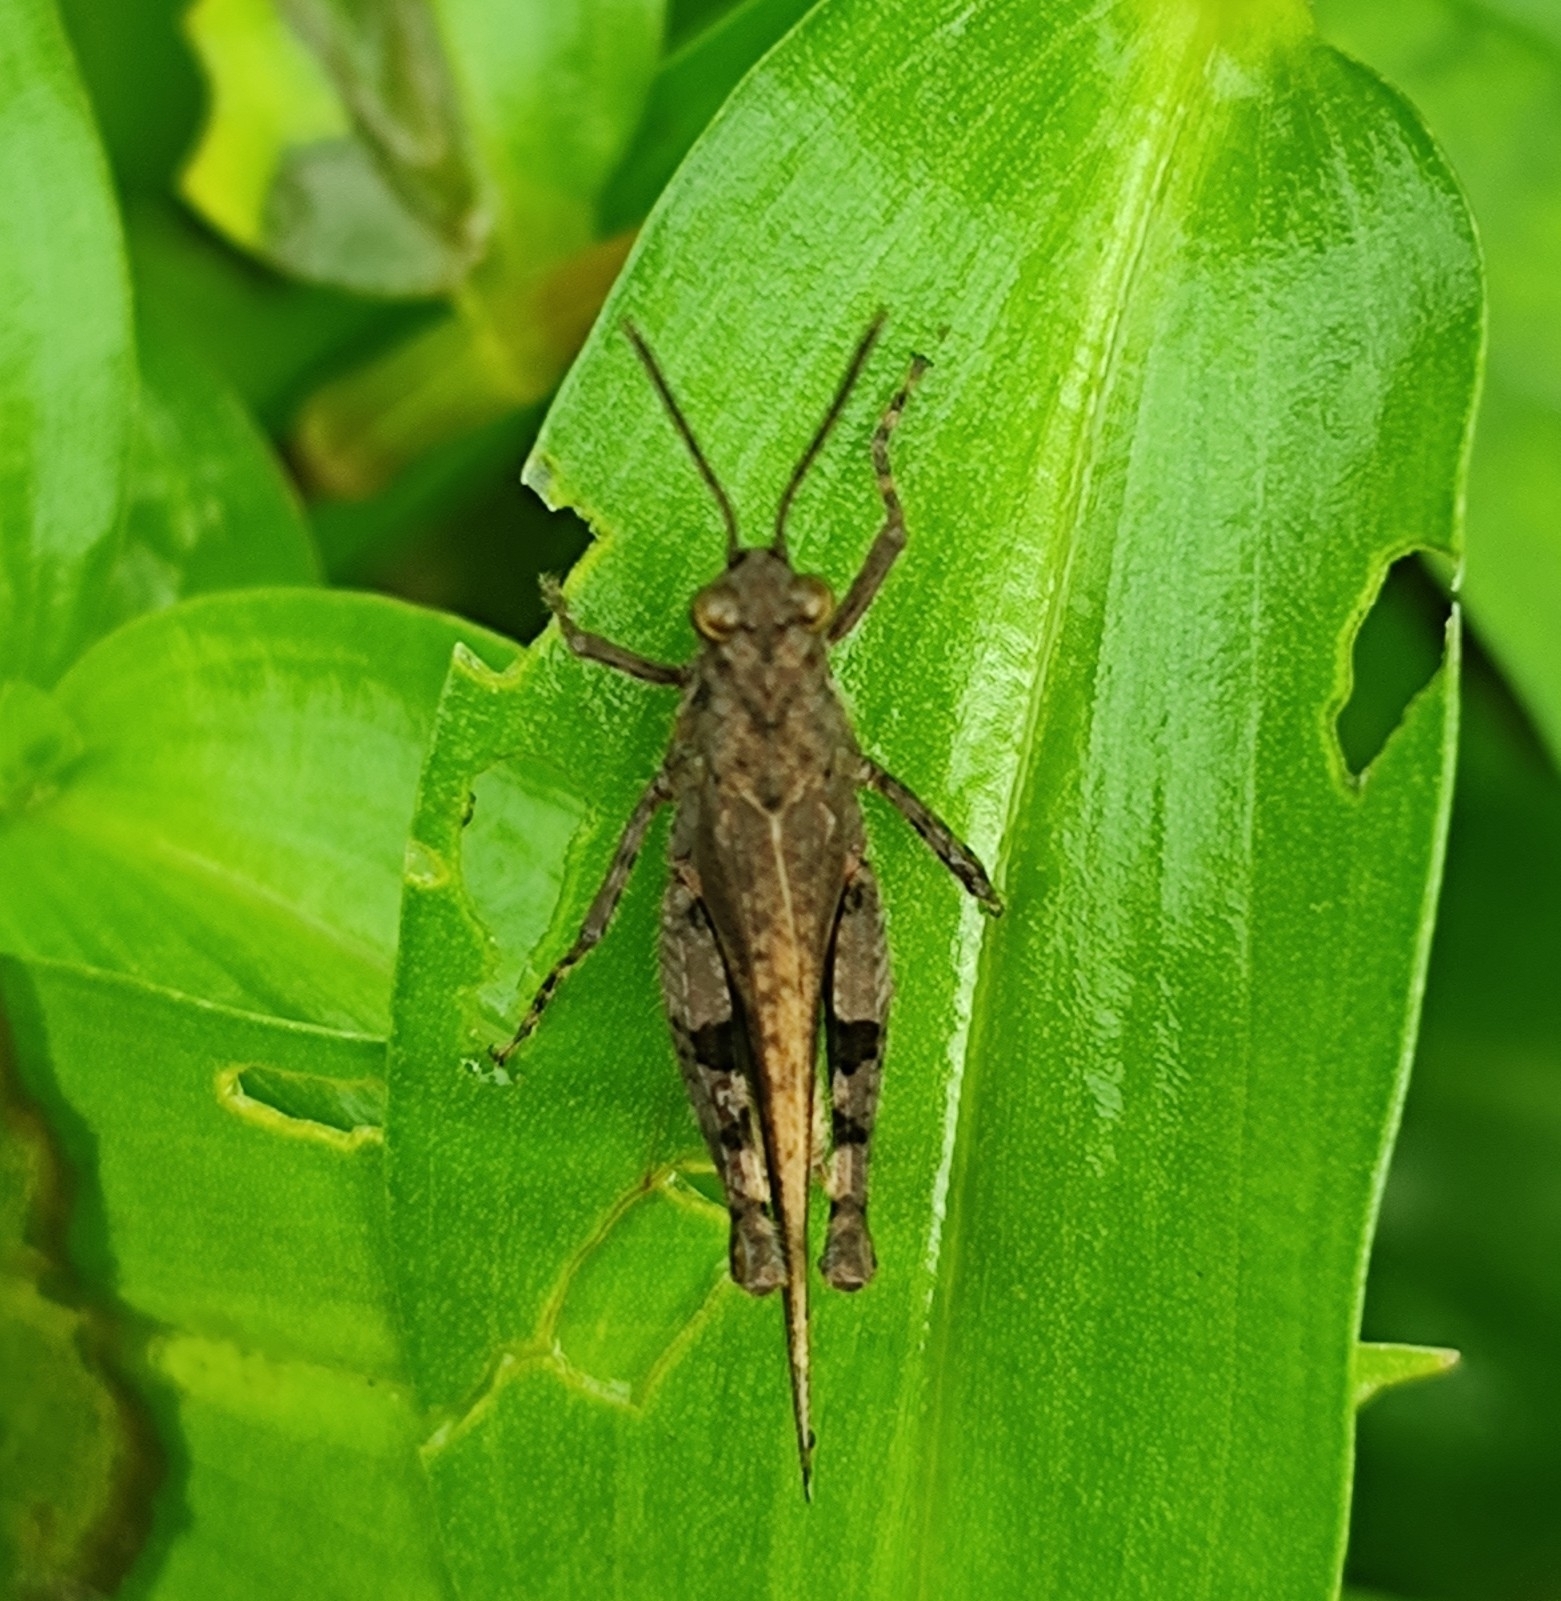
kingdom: Animalia
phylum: Arthropoda
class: Insecta
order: Orthoptera
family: Acrididae
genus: Trilophidia
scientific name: Trilophidia annulata
